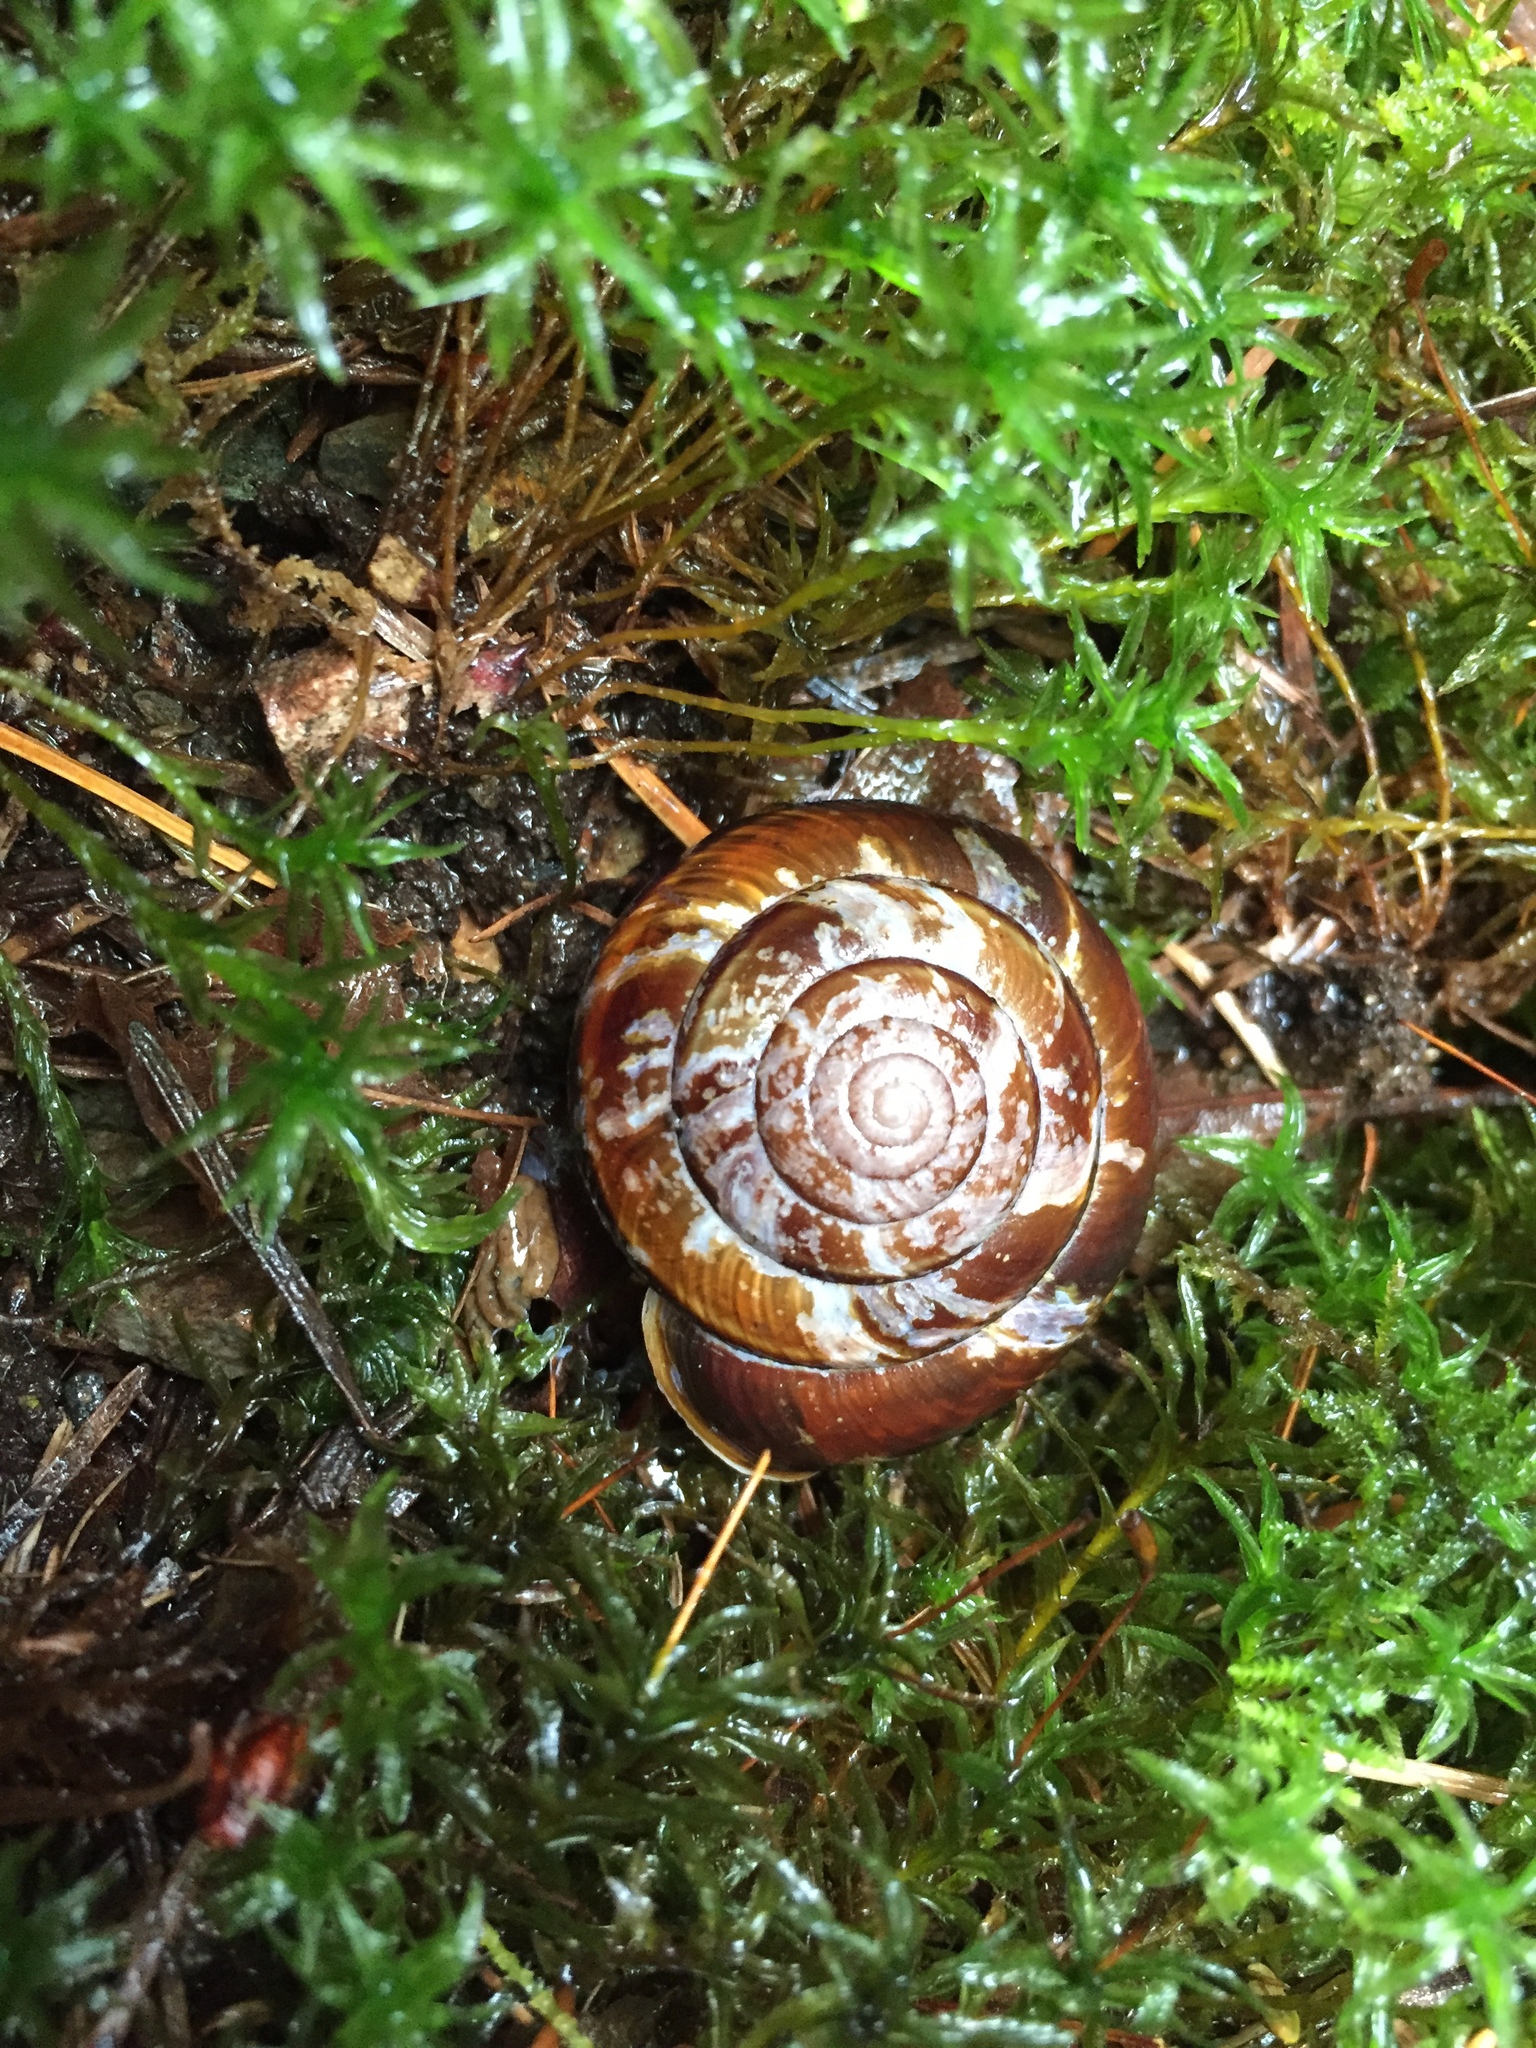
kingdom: Animalia
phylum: Mollusca
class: Gastropoda
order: Stylommatophora
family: Xanthonychidae
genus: Monadenia
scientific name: Monadenia fidelis
